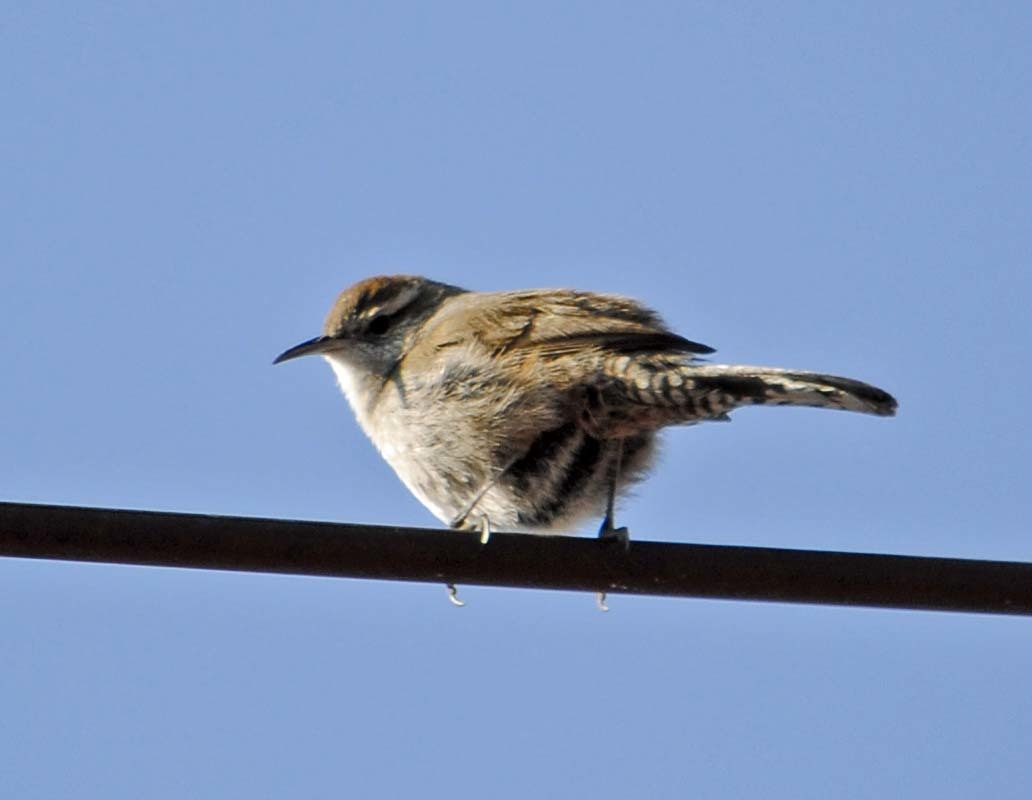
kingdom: Animalia
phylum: Chordata
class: Aves
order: Passeriformes
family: Troglodytidae
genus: Thryomanes
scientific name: Thryomanes bewickii
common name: Bewick's wren
